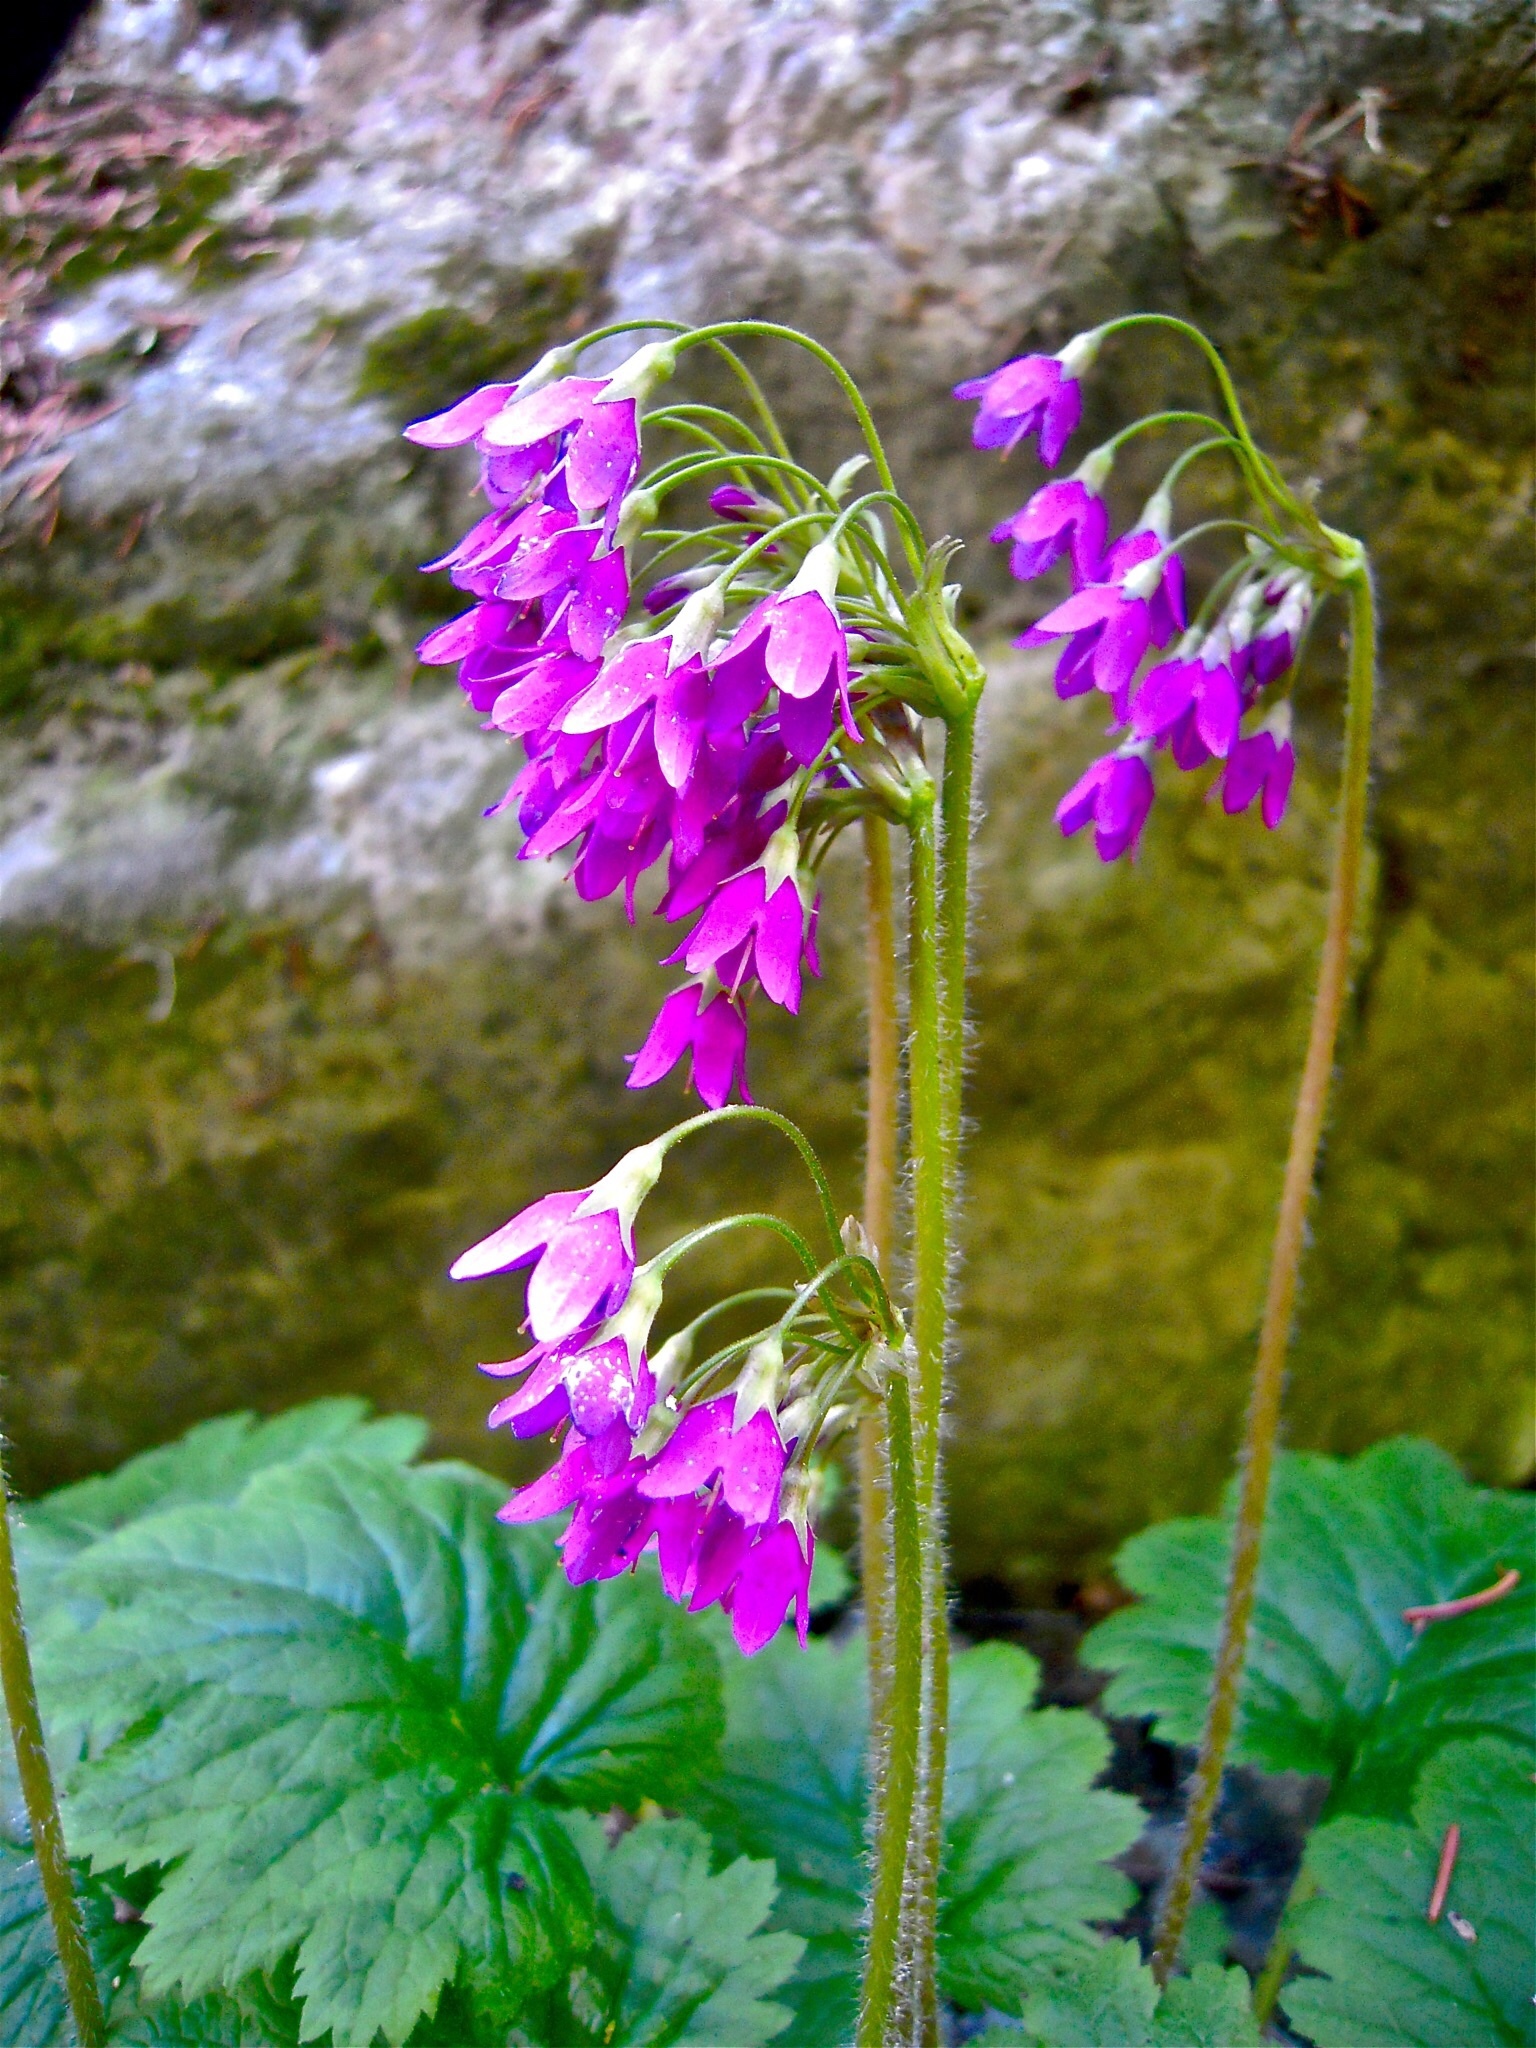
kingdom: Plantae
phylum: Tracheophyta
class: Magnoliopsida
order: Ericales
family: Primulaceae
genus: Primula
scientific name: Primula matthioli
